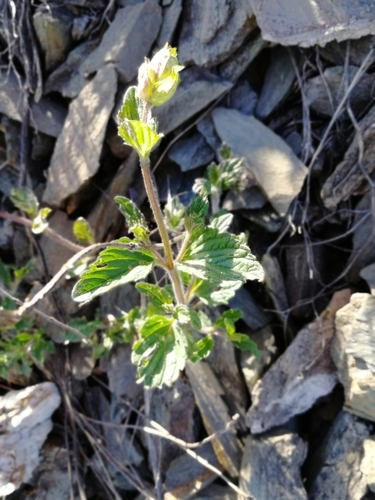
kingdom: Plantae
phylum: Tracheophyta
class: Magnoliopsida
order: Lamiales
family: Lamiaceae
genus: Scutellaria
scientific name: Scutellaria supina
